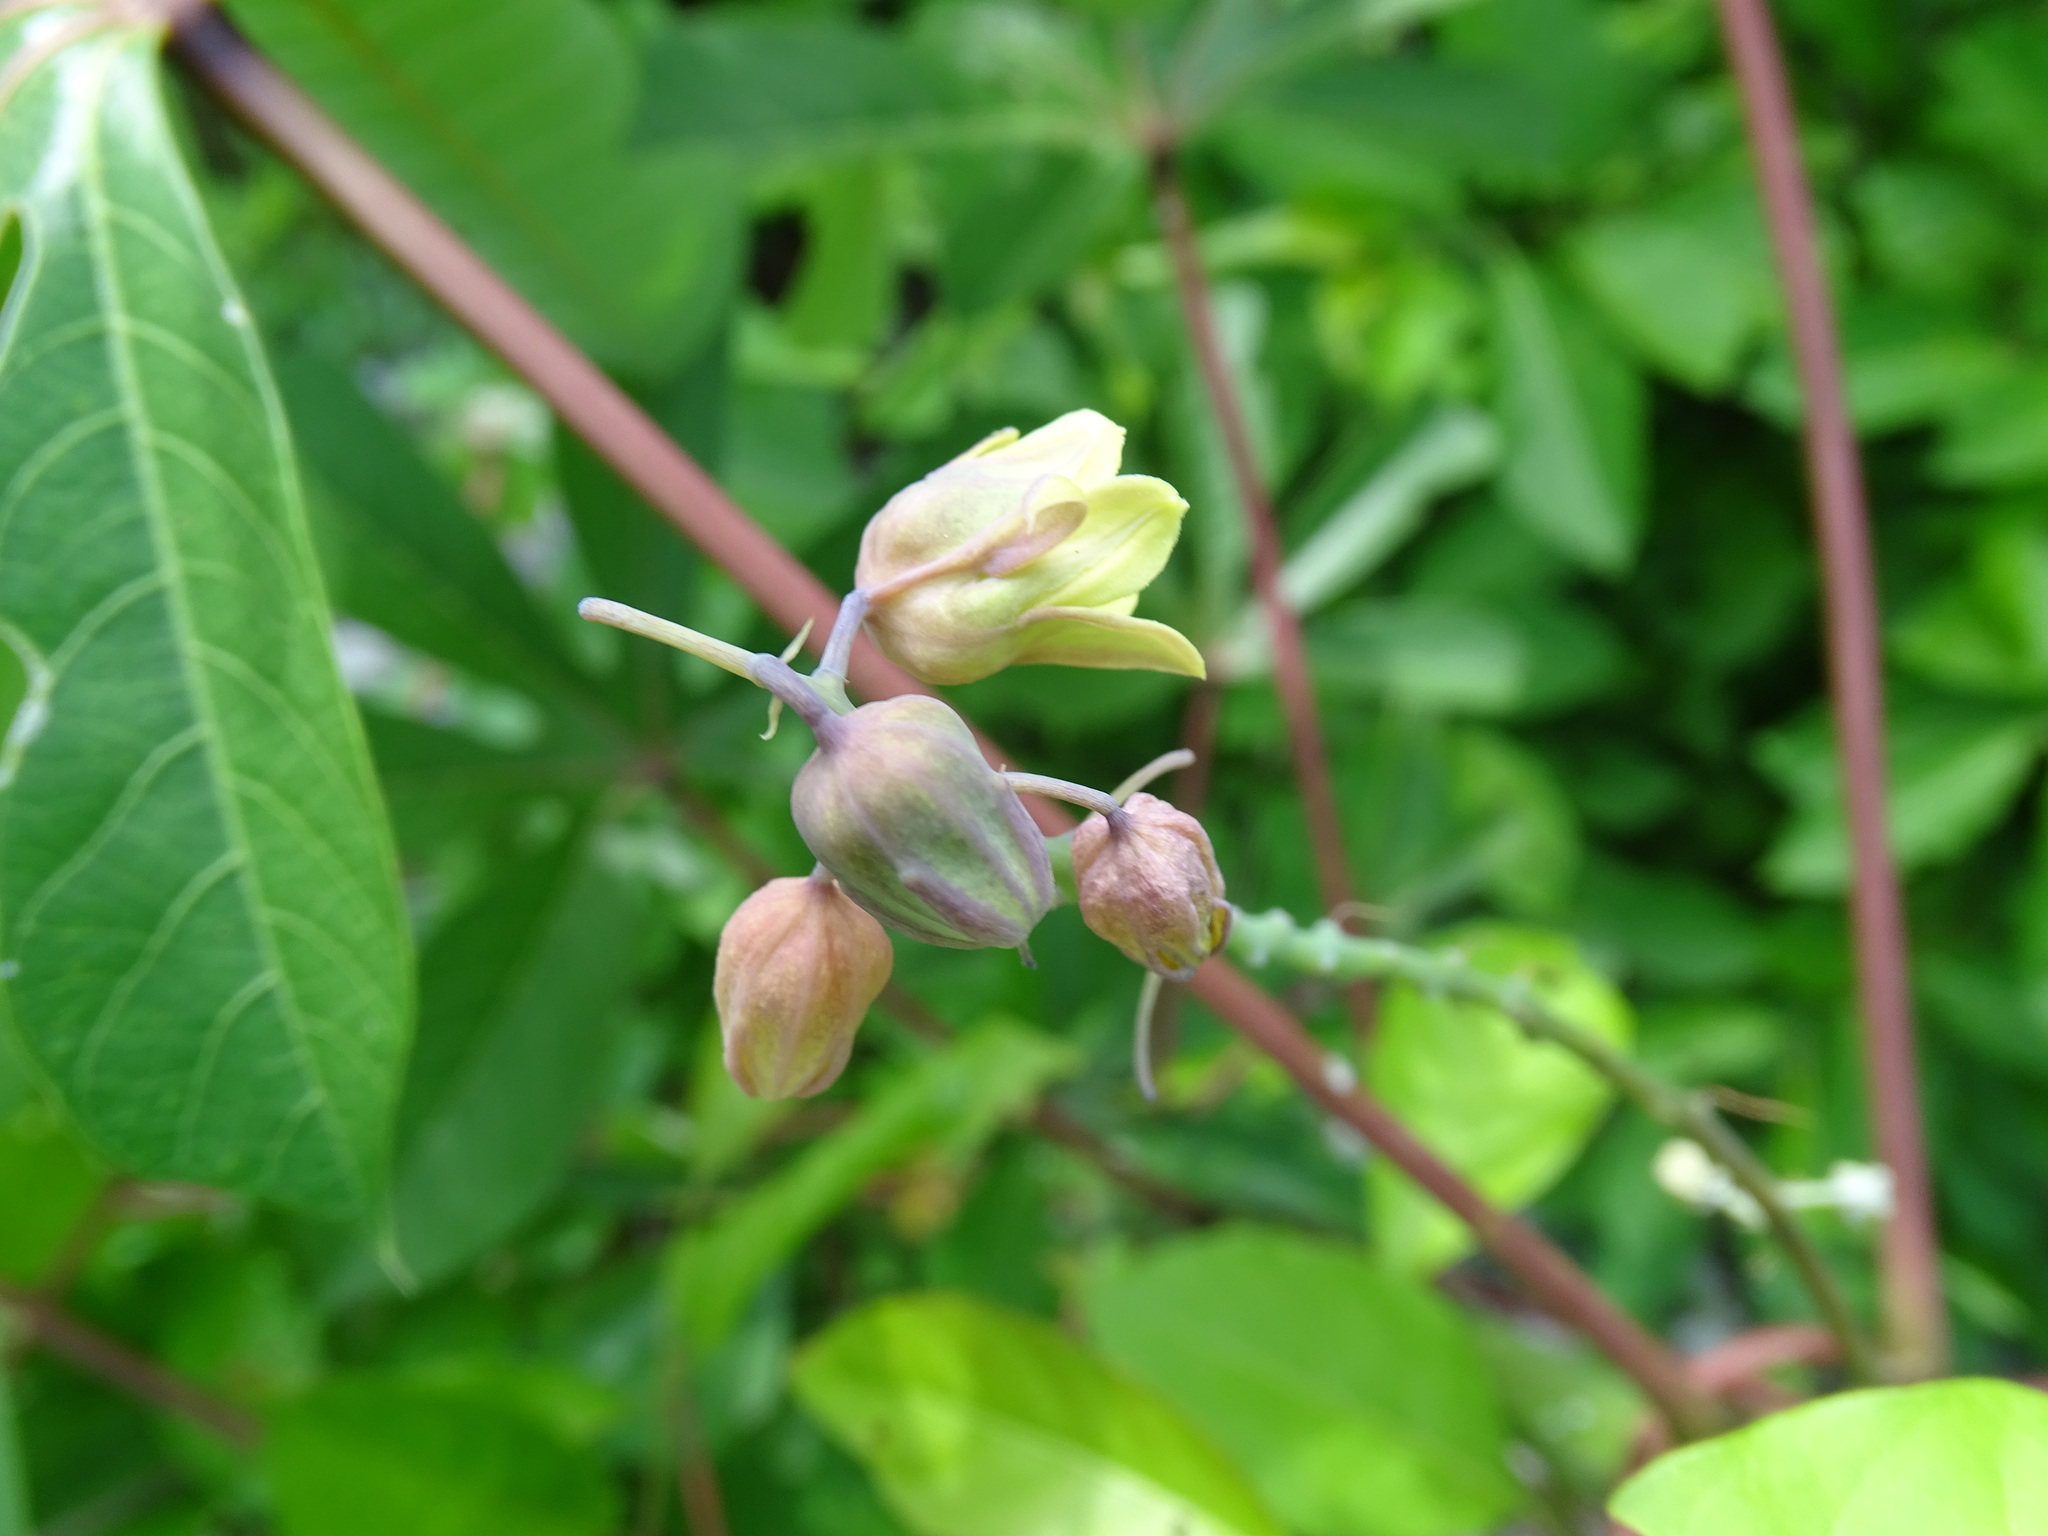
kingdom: Plantae
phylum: Tracheophyta
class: Magnoliopsida
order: Malpighiales
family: Euphorbiaceae
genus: Manihot
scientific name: Manihot esculenta
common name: Cassava
